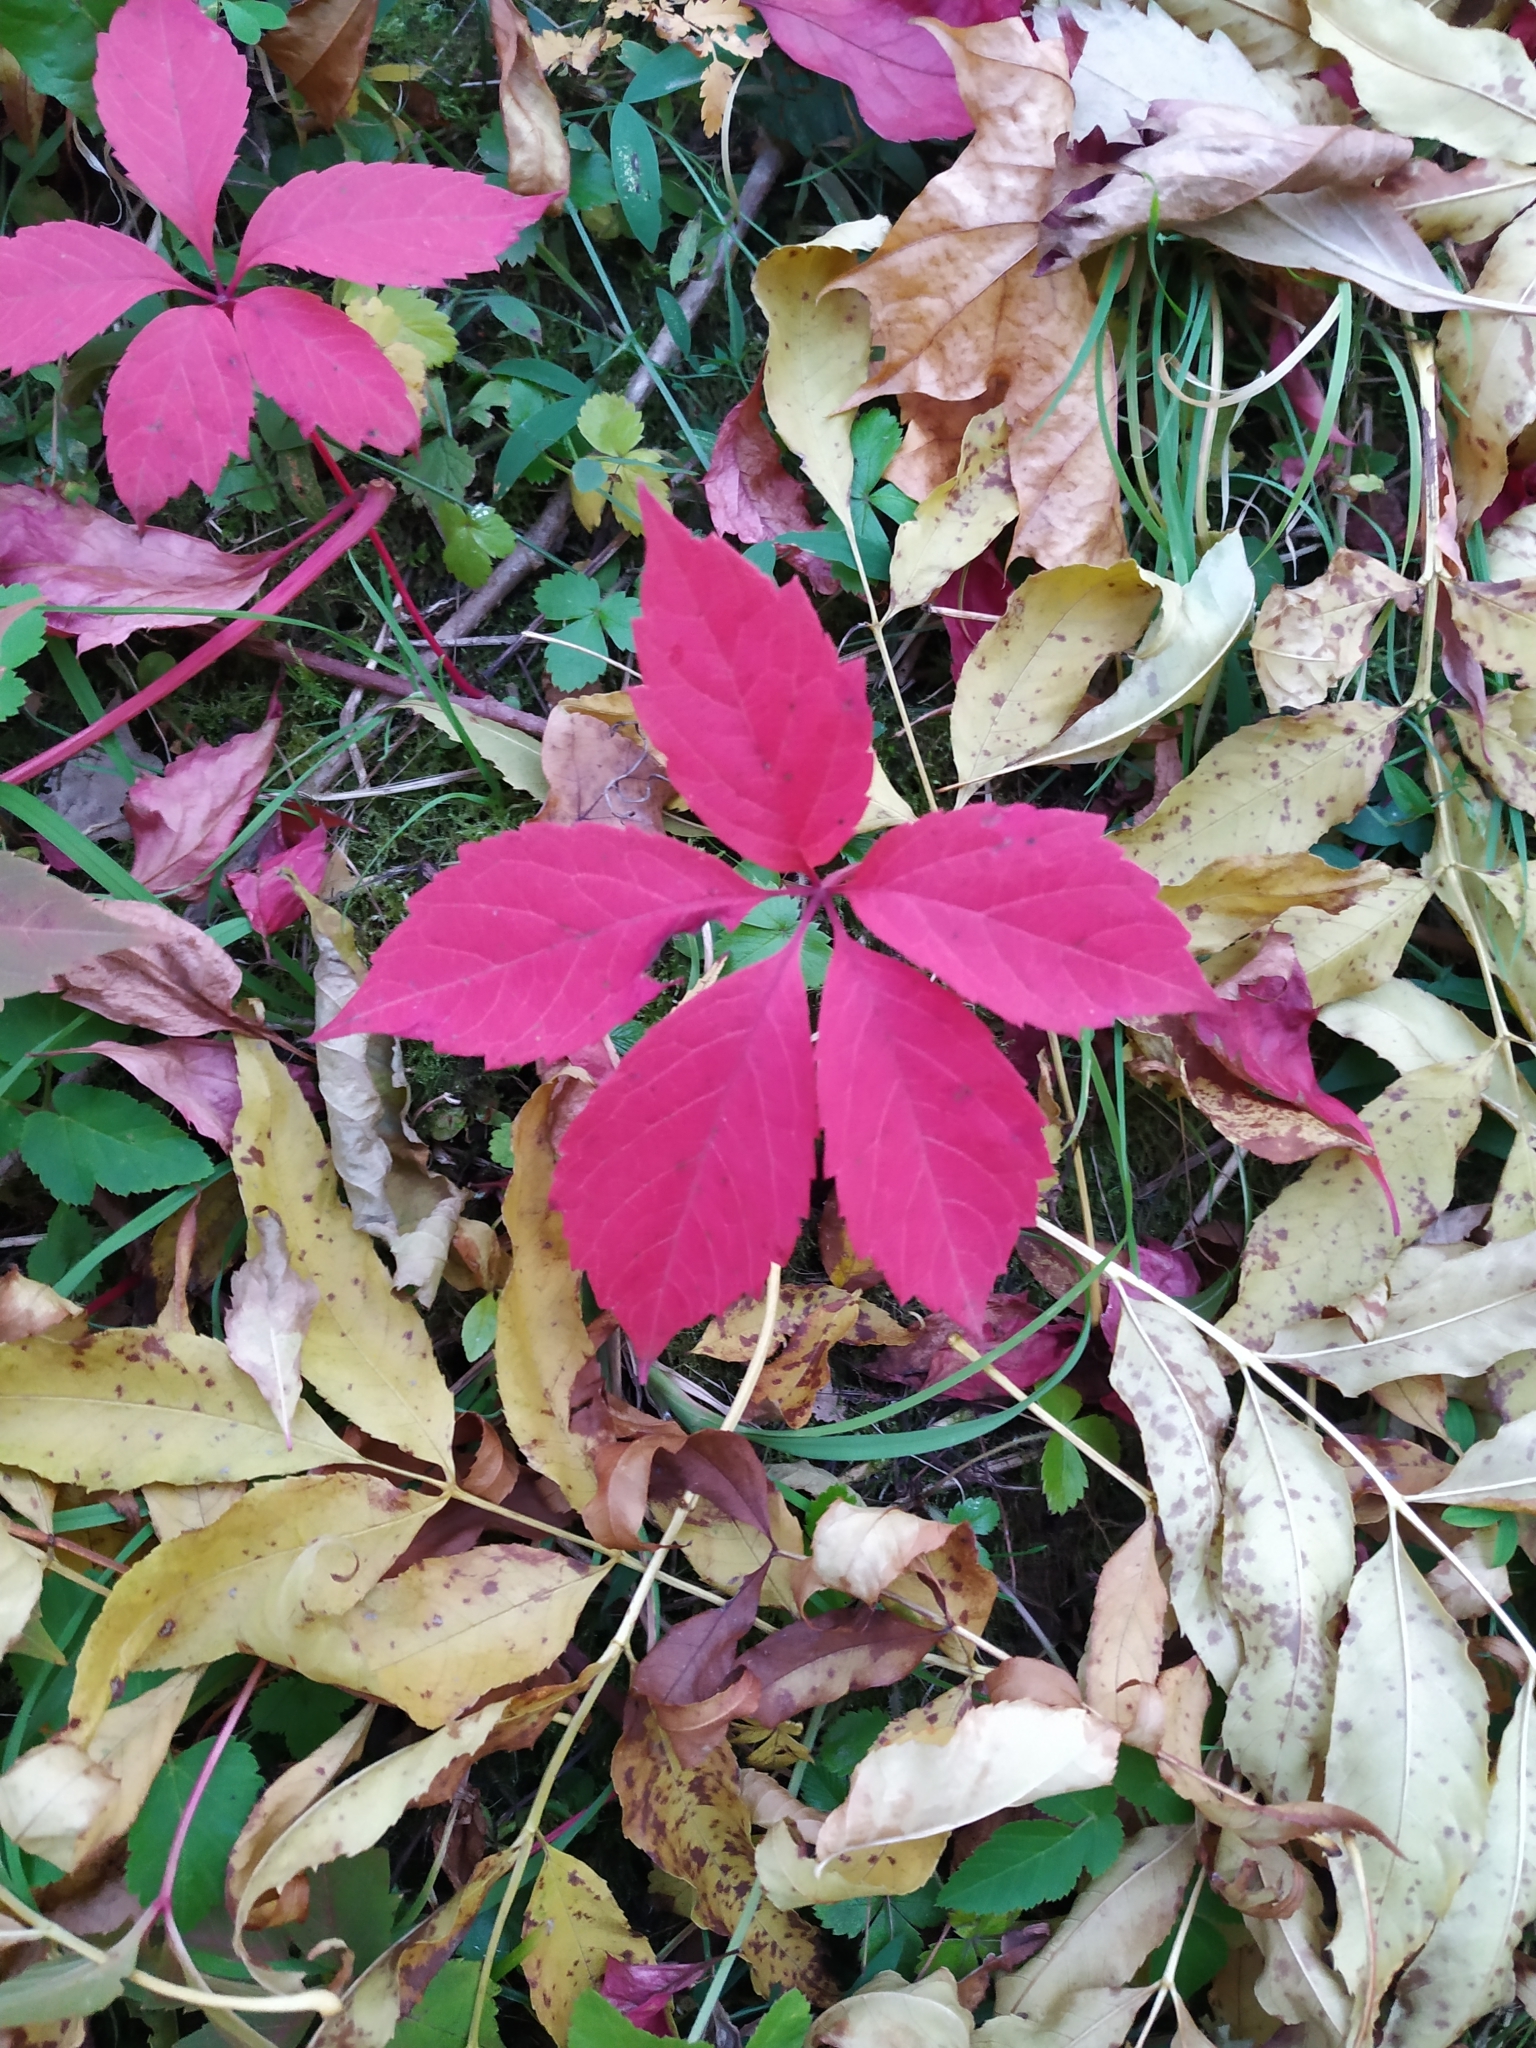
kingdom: Plantae
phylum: Tracheophyta
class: Magnoliopsida
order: Vitales
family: Vitaceae
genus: Parthenocissus
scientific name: Parthenocissus inserta
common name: False virginia-creeper
